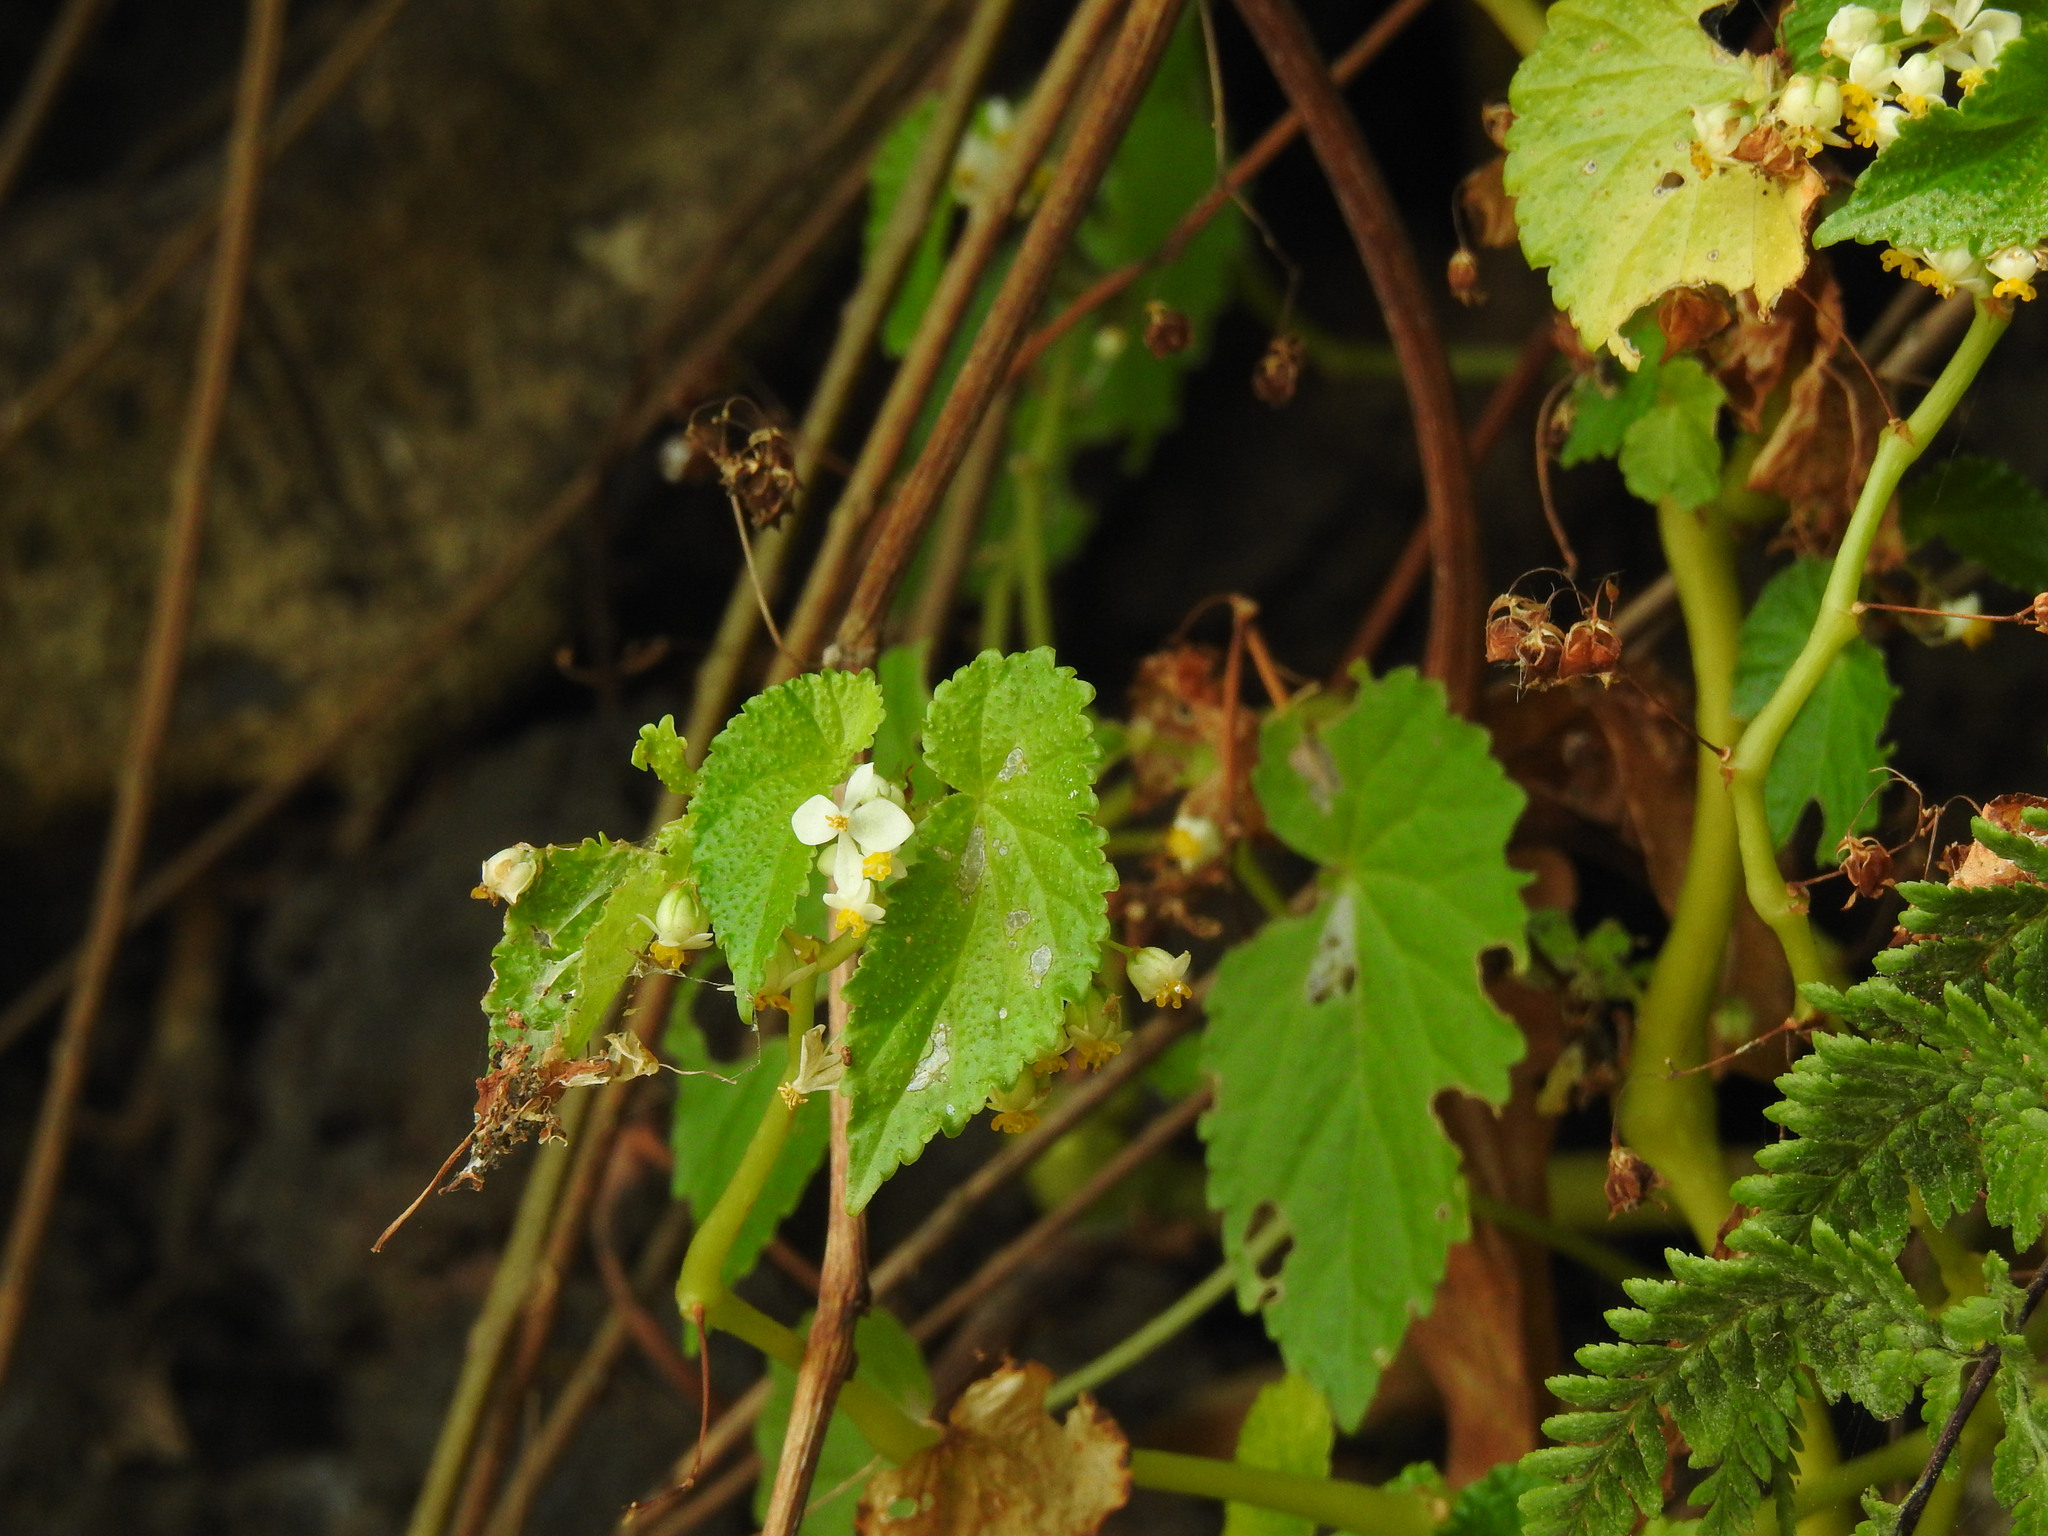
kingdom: Plantae
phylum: Tracheophyta
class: Magnoliopsida
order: Cucurbitales
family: Begoniaceae
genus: Begonia
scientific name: Begonia annobonensis
